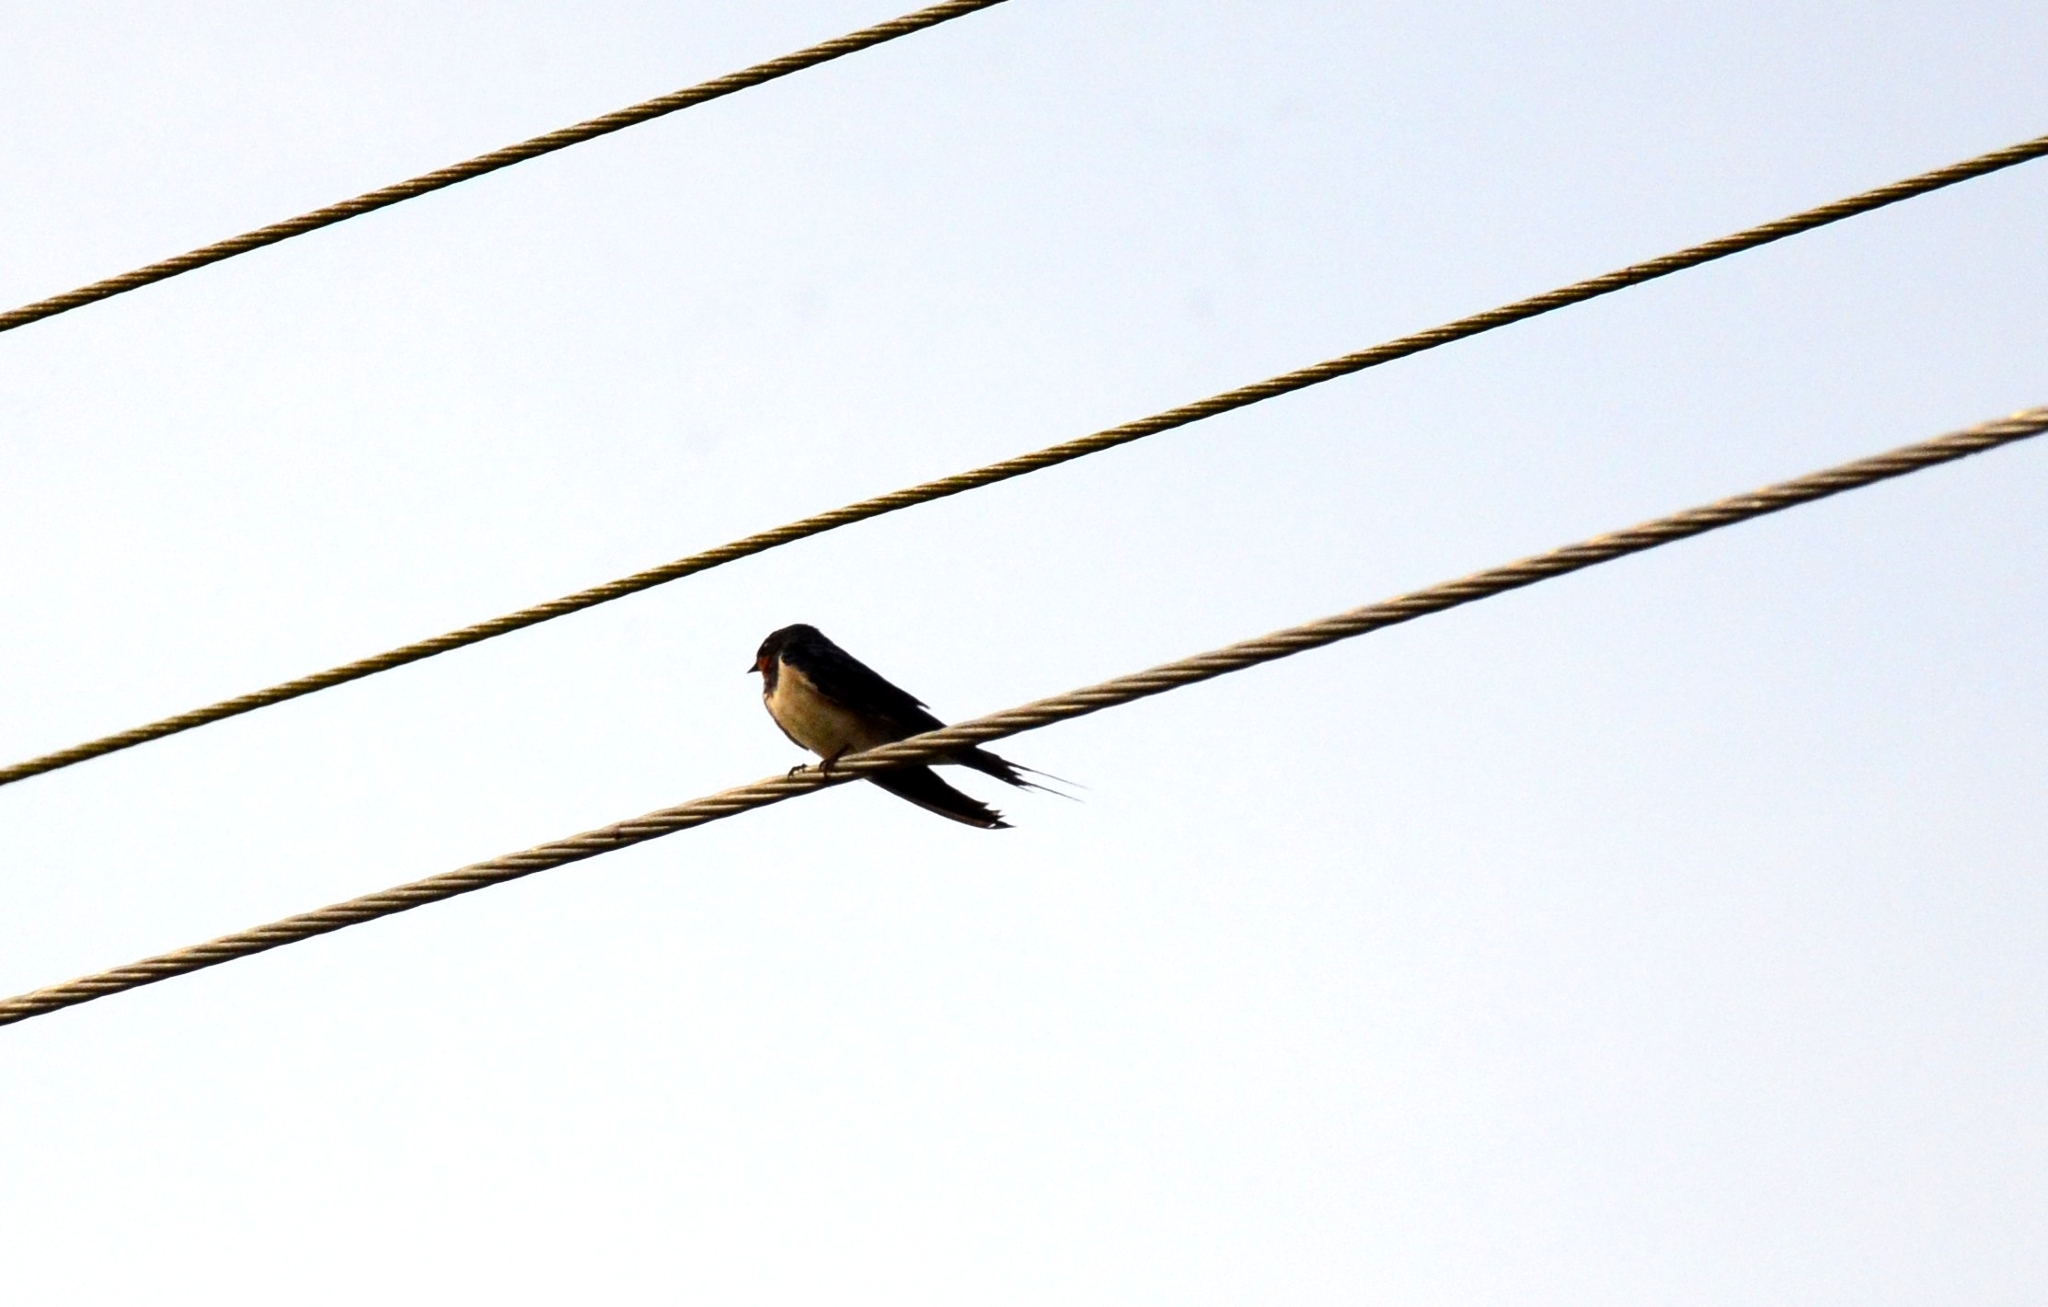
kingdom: Animalia
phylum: Chordata
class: Aves
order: Passeriformes
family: Hirundinidae
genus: Hirundo
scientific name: Hirundo rustica
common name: Barn swallow
